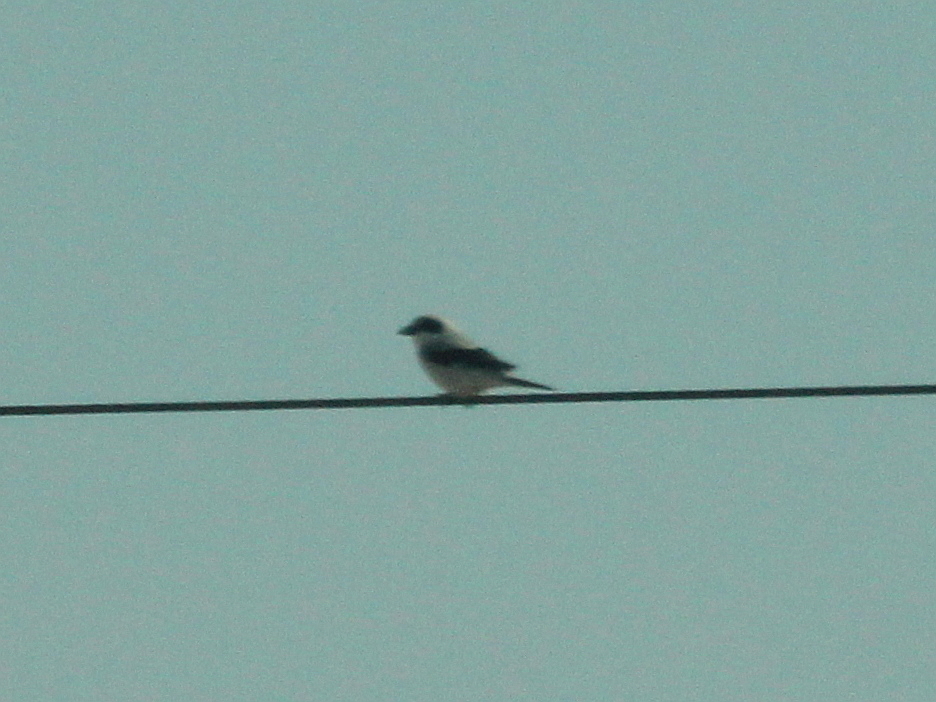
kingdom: Animalia
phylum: Chordata
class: Aves
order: Passeriformes
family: Laniidae
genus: Lanius
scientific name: Lanius minor
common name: Lesser grey shrike
